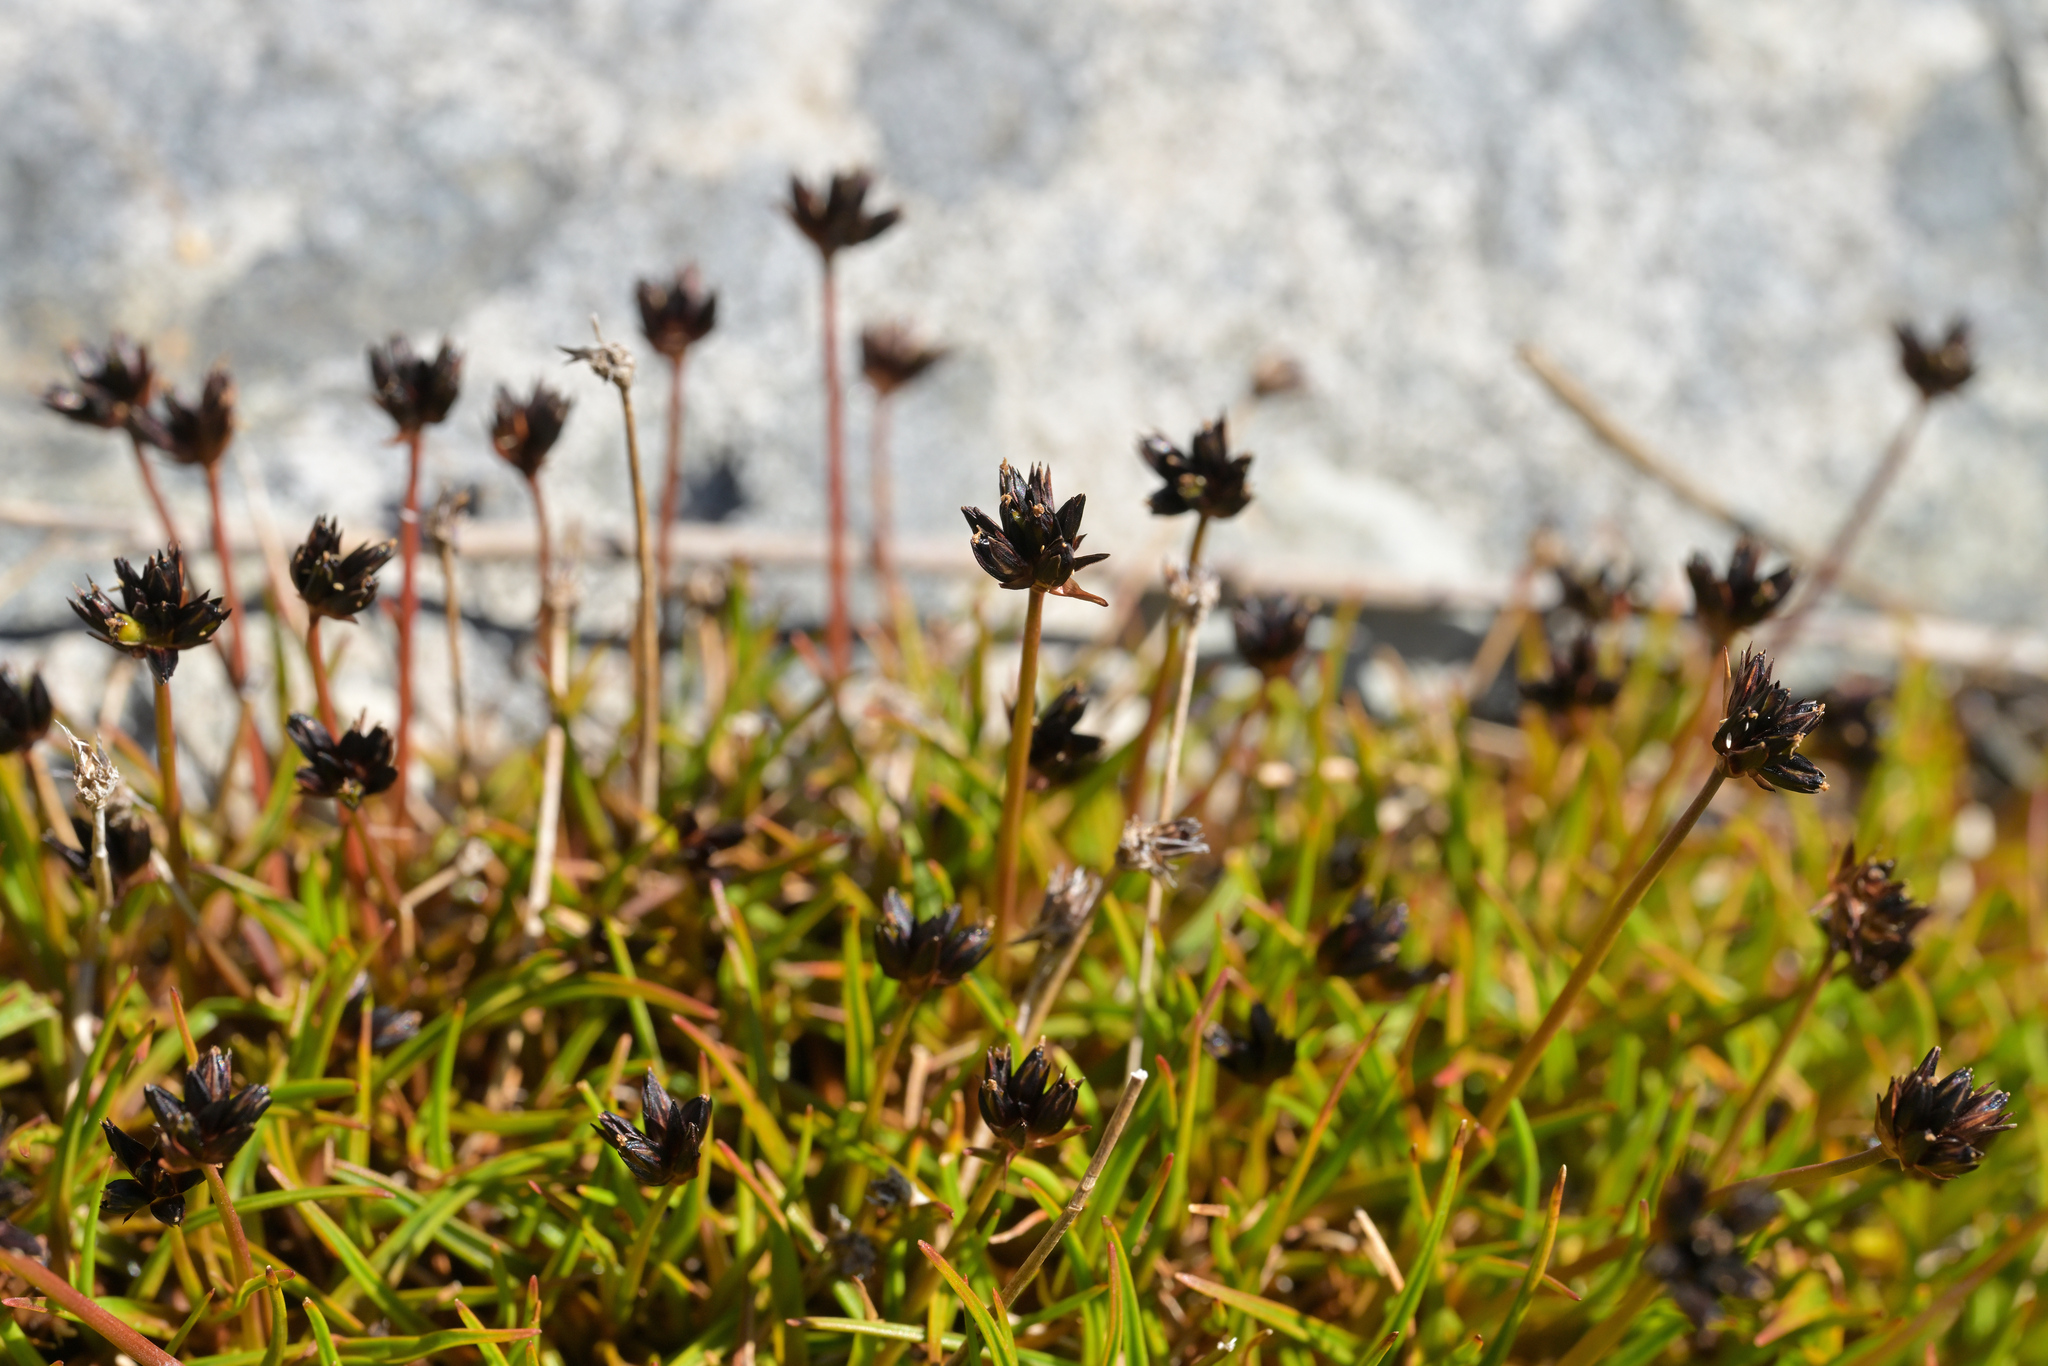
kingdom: Plantae
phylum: Tracheophyta
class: Liliopsida
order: Poales
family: Juncaceae
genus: Luzula
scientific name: Luzula pumila
